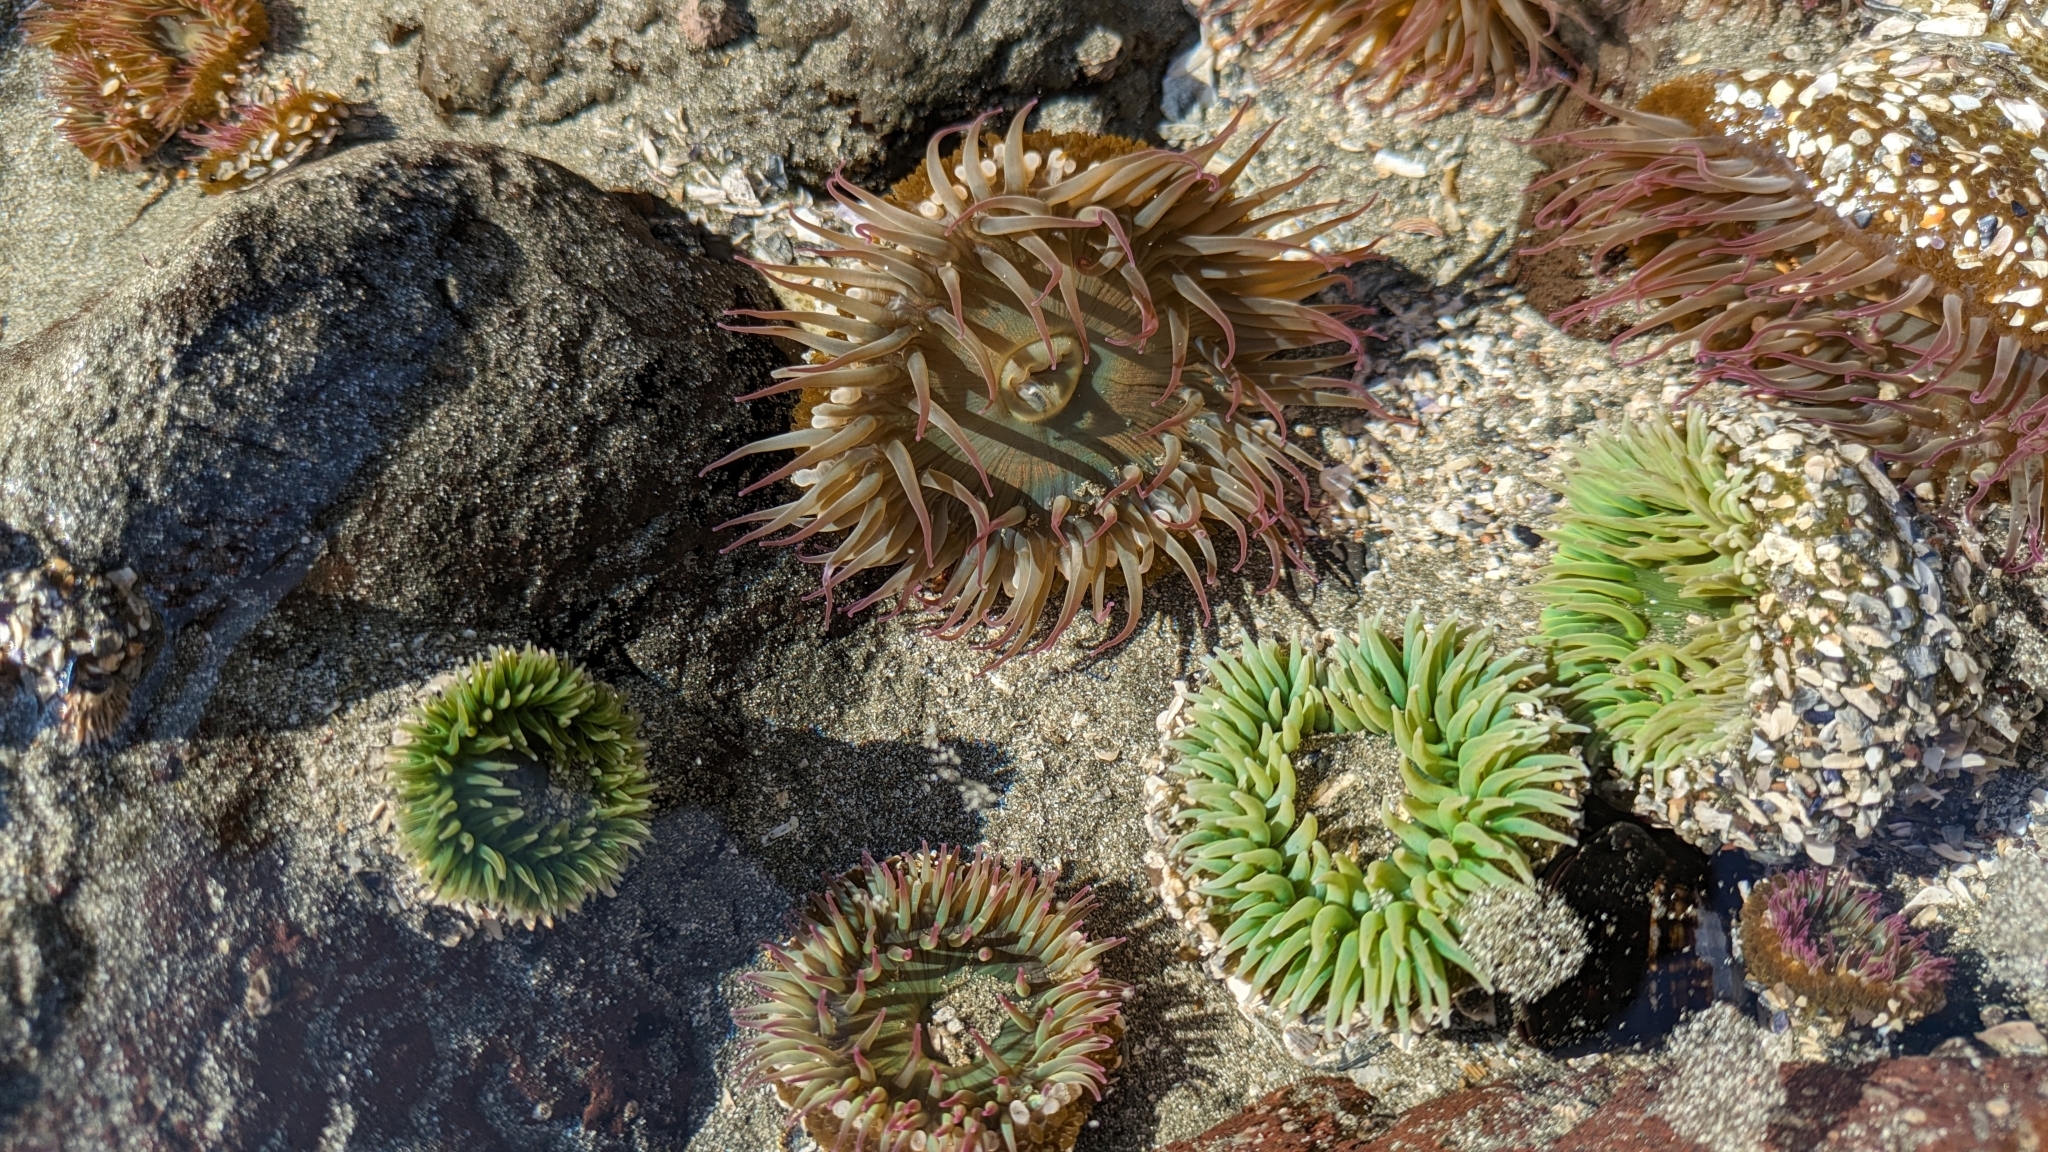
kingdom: Animalia
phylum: Cnidaria
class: Anthozoa
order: Actiniaria
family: Actiniidae
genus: Anthopleura
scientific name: Anthopleura elegantissima
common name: Clonal anemone
